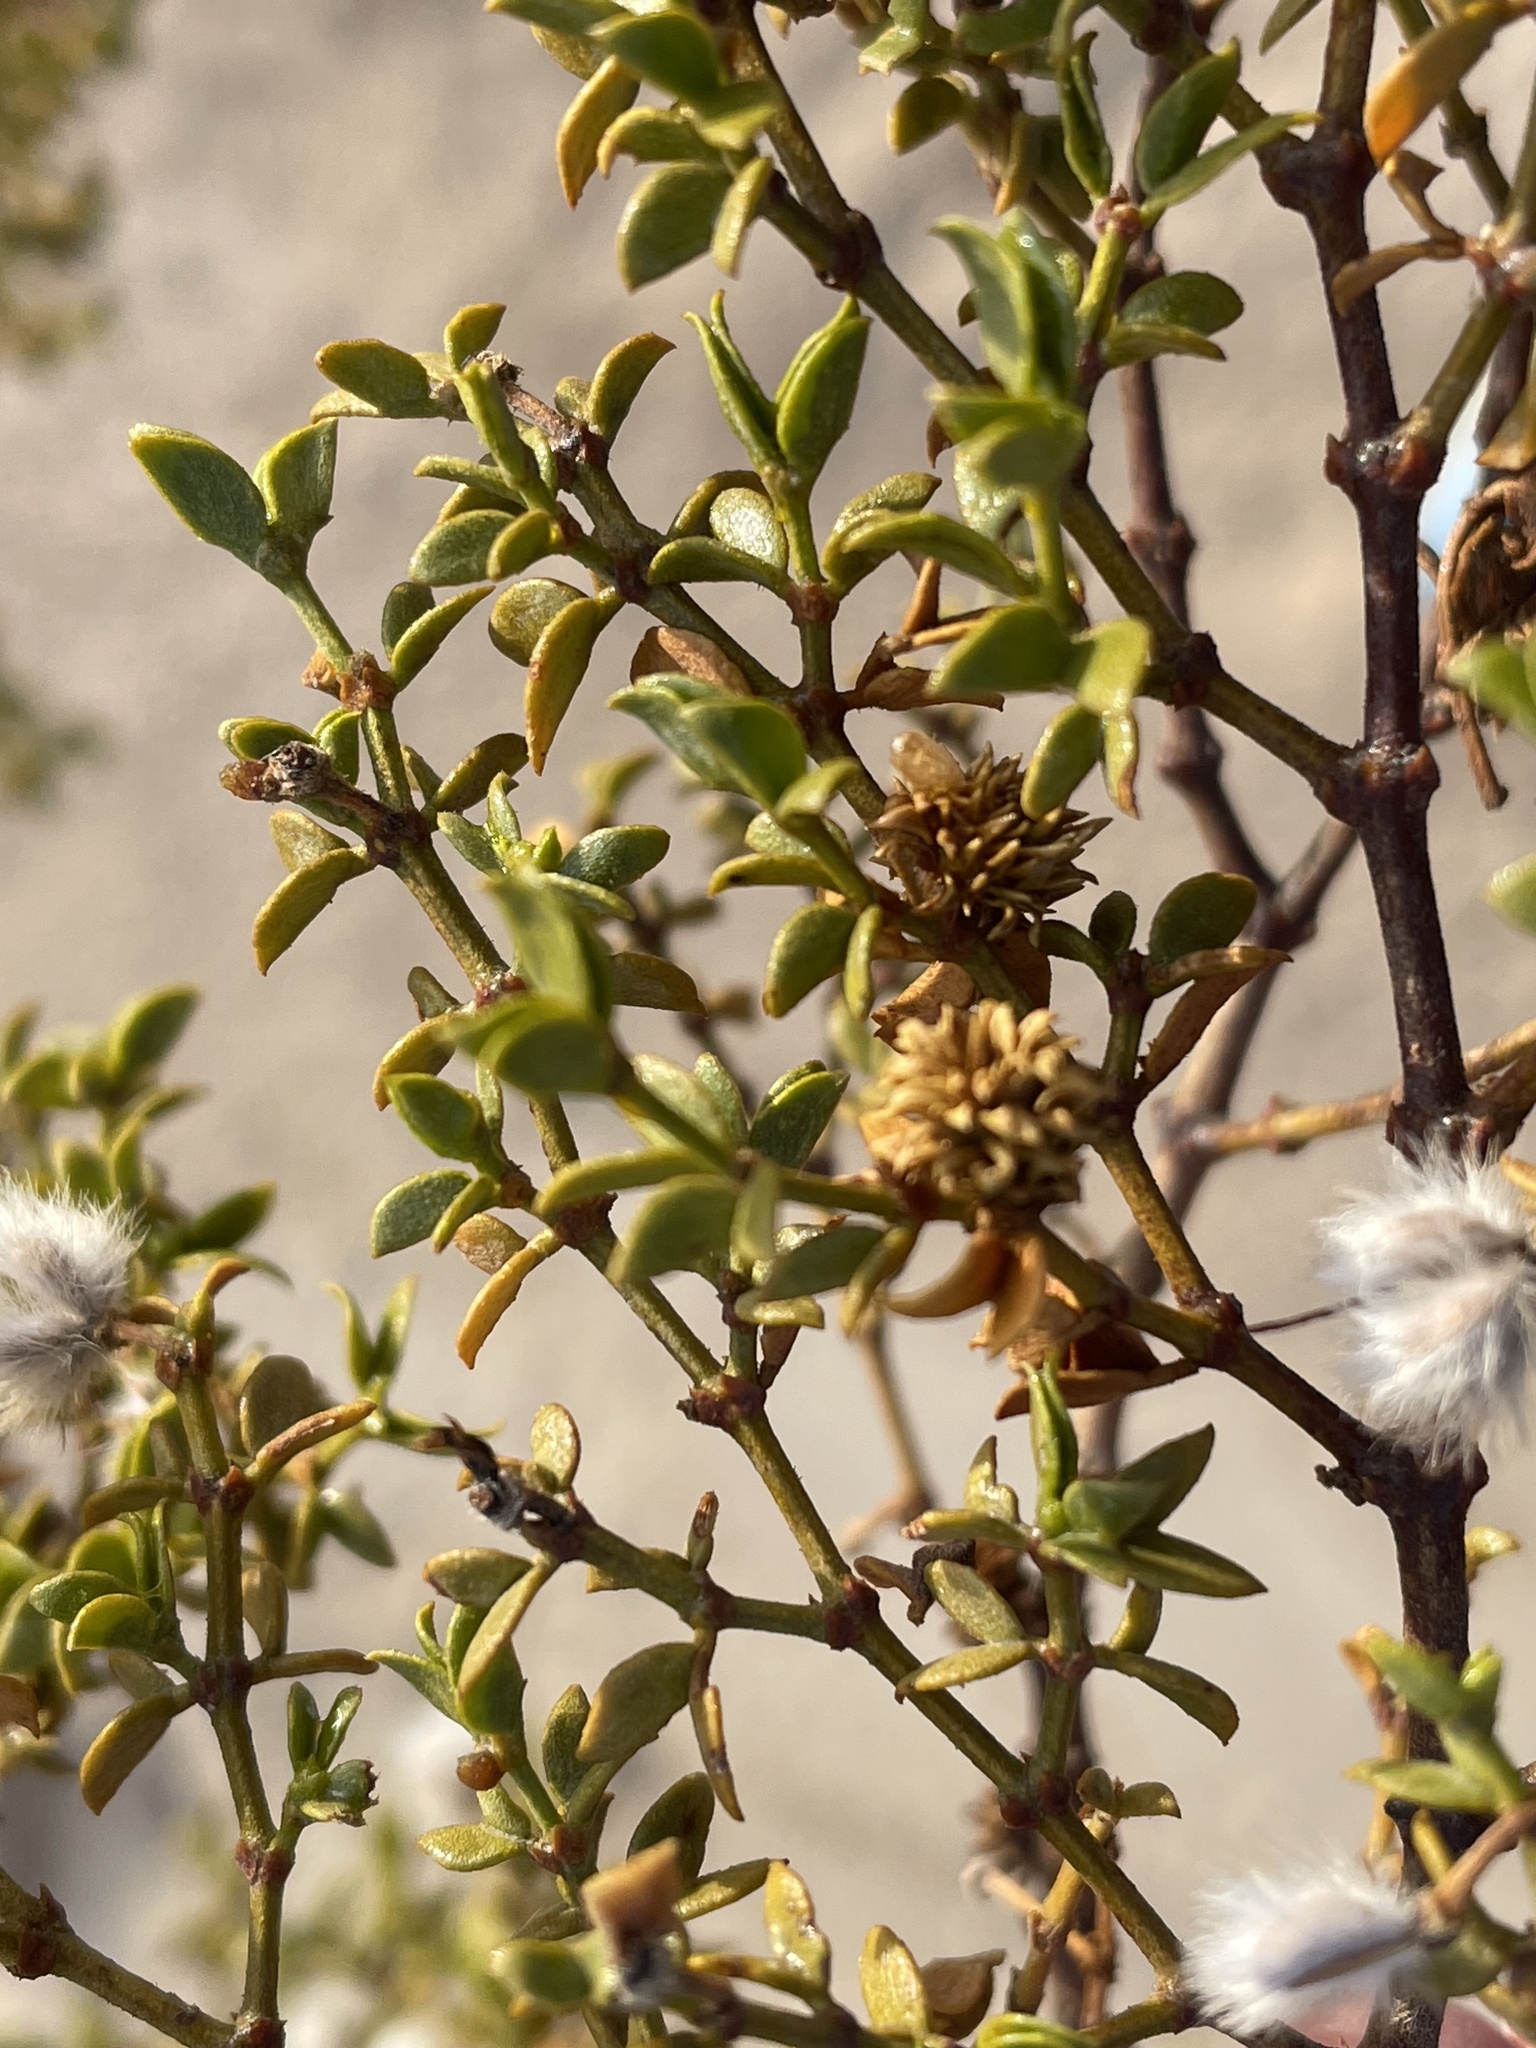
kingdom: Animalia
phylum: Arthropoda
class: Insecta
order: Diptera
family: Cecidomyiidae
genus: Asphondylia
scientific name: Asphondylia rosetta
